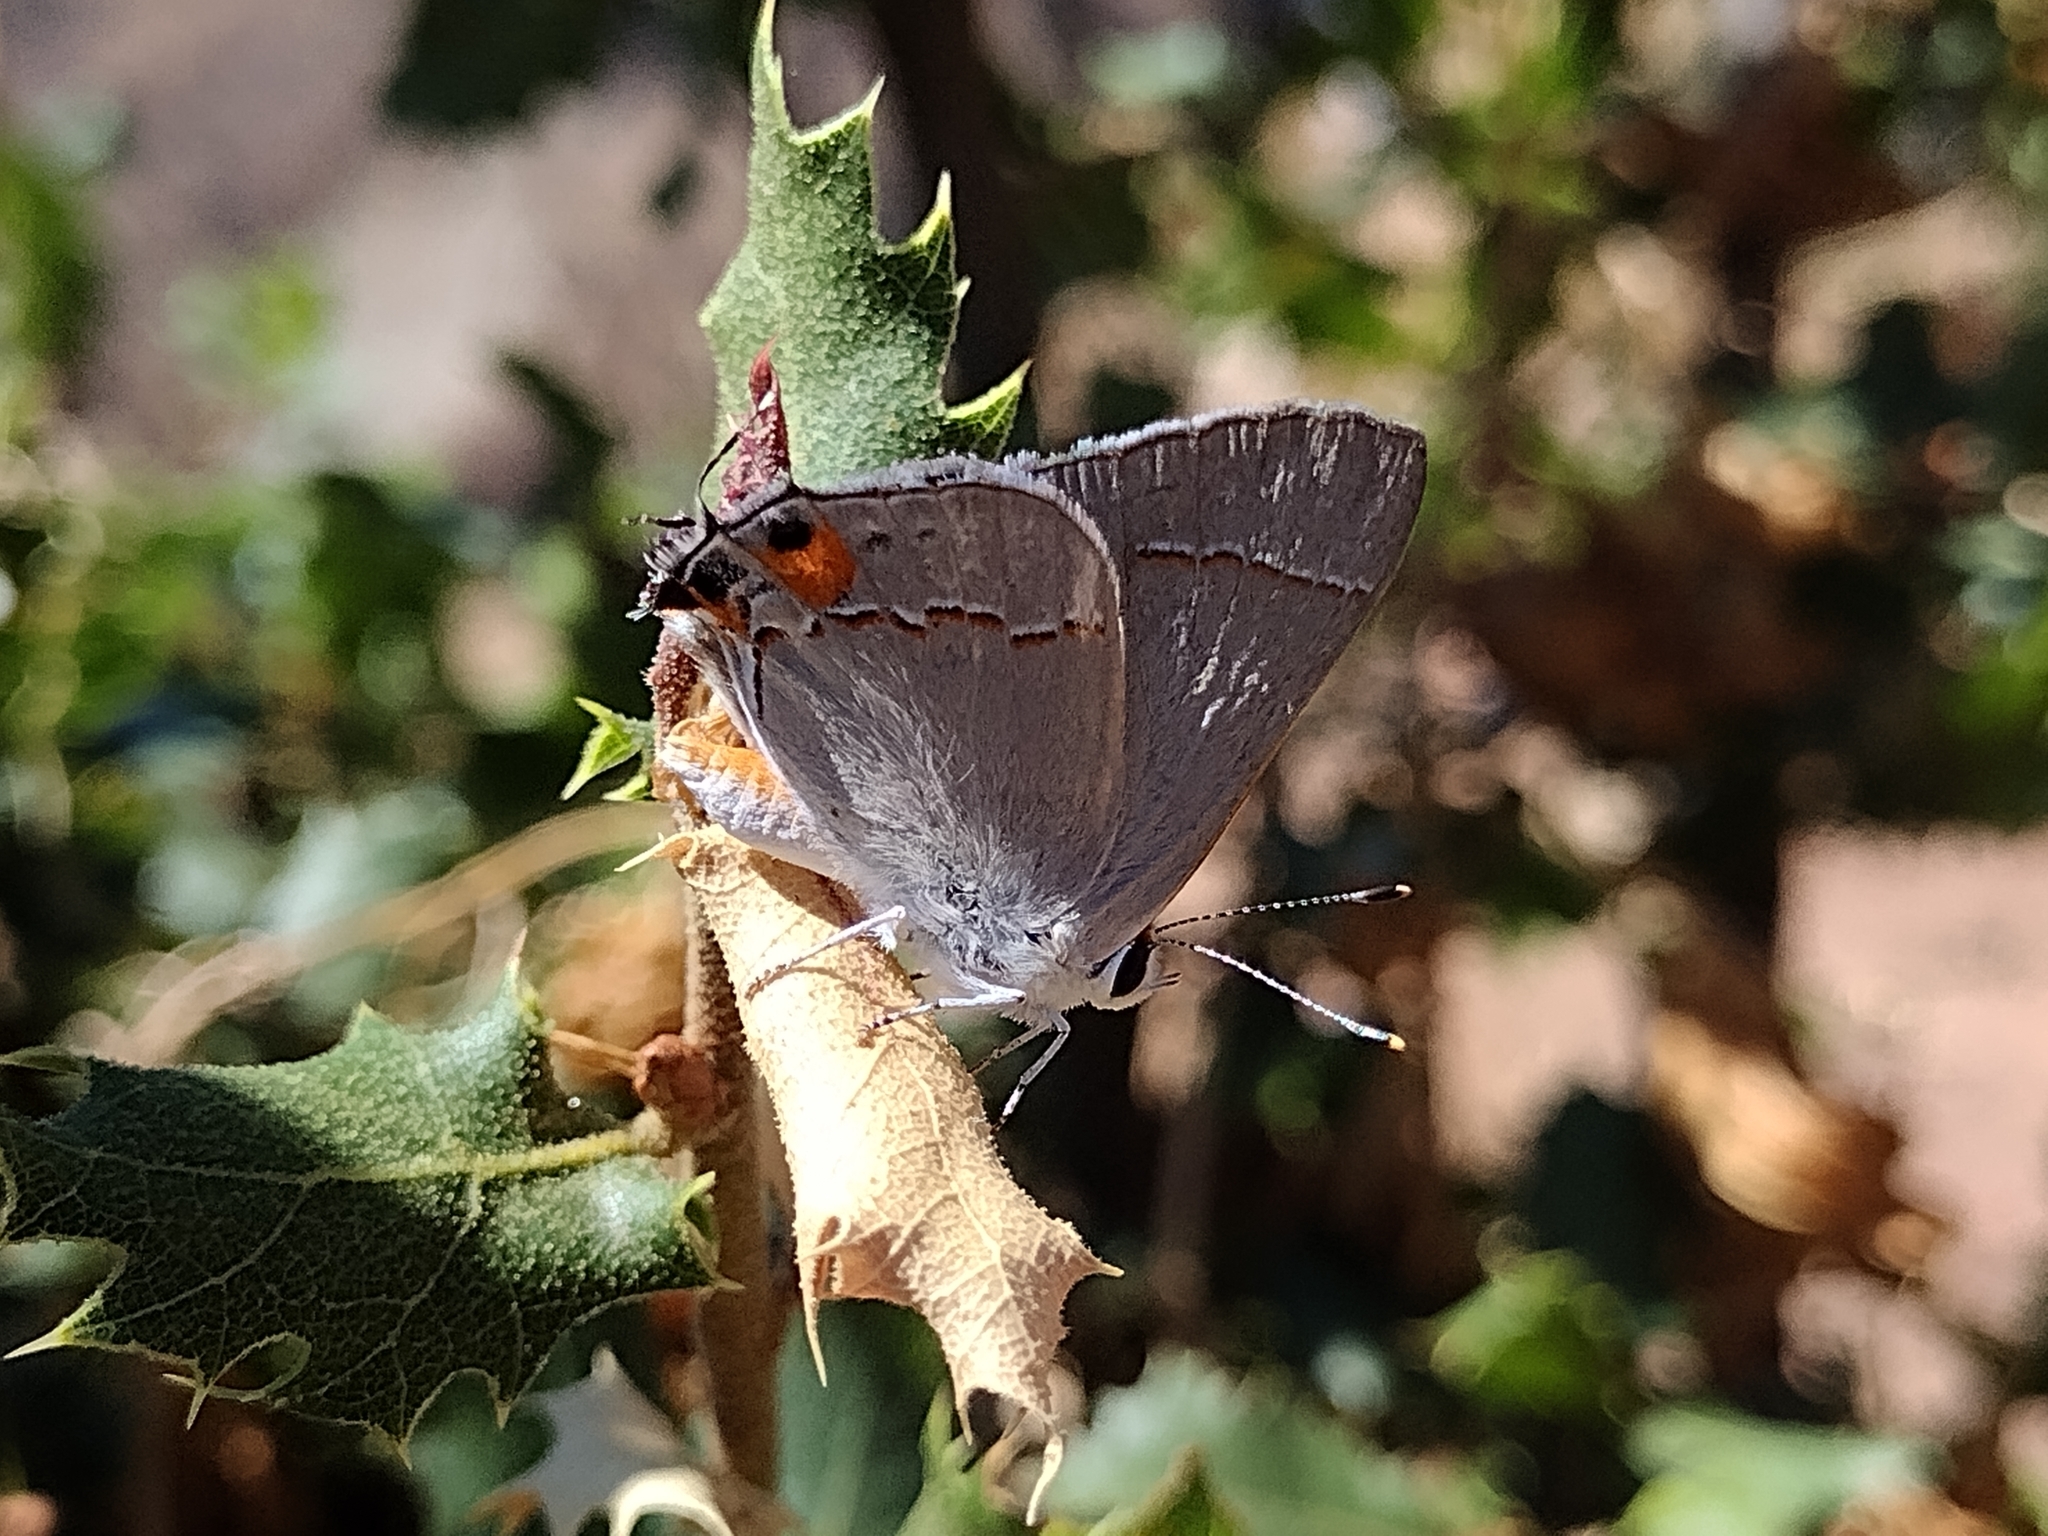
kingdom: Animalia
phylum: Arthropoda
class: Insecta
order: Lepidoptera
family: Lycaenidae
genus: Strymon
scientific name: Strymon melinus
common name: Gray hairstreak
